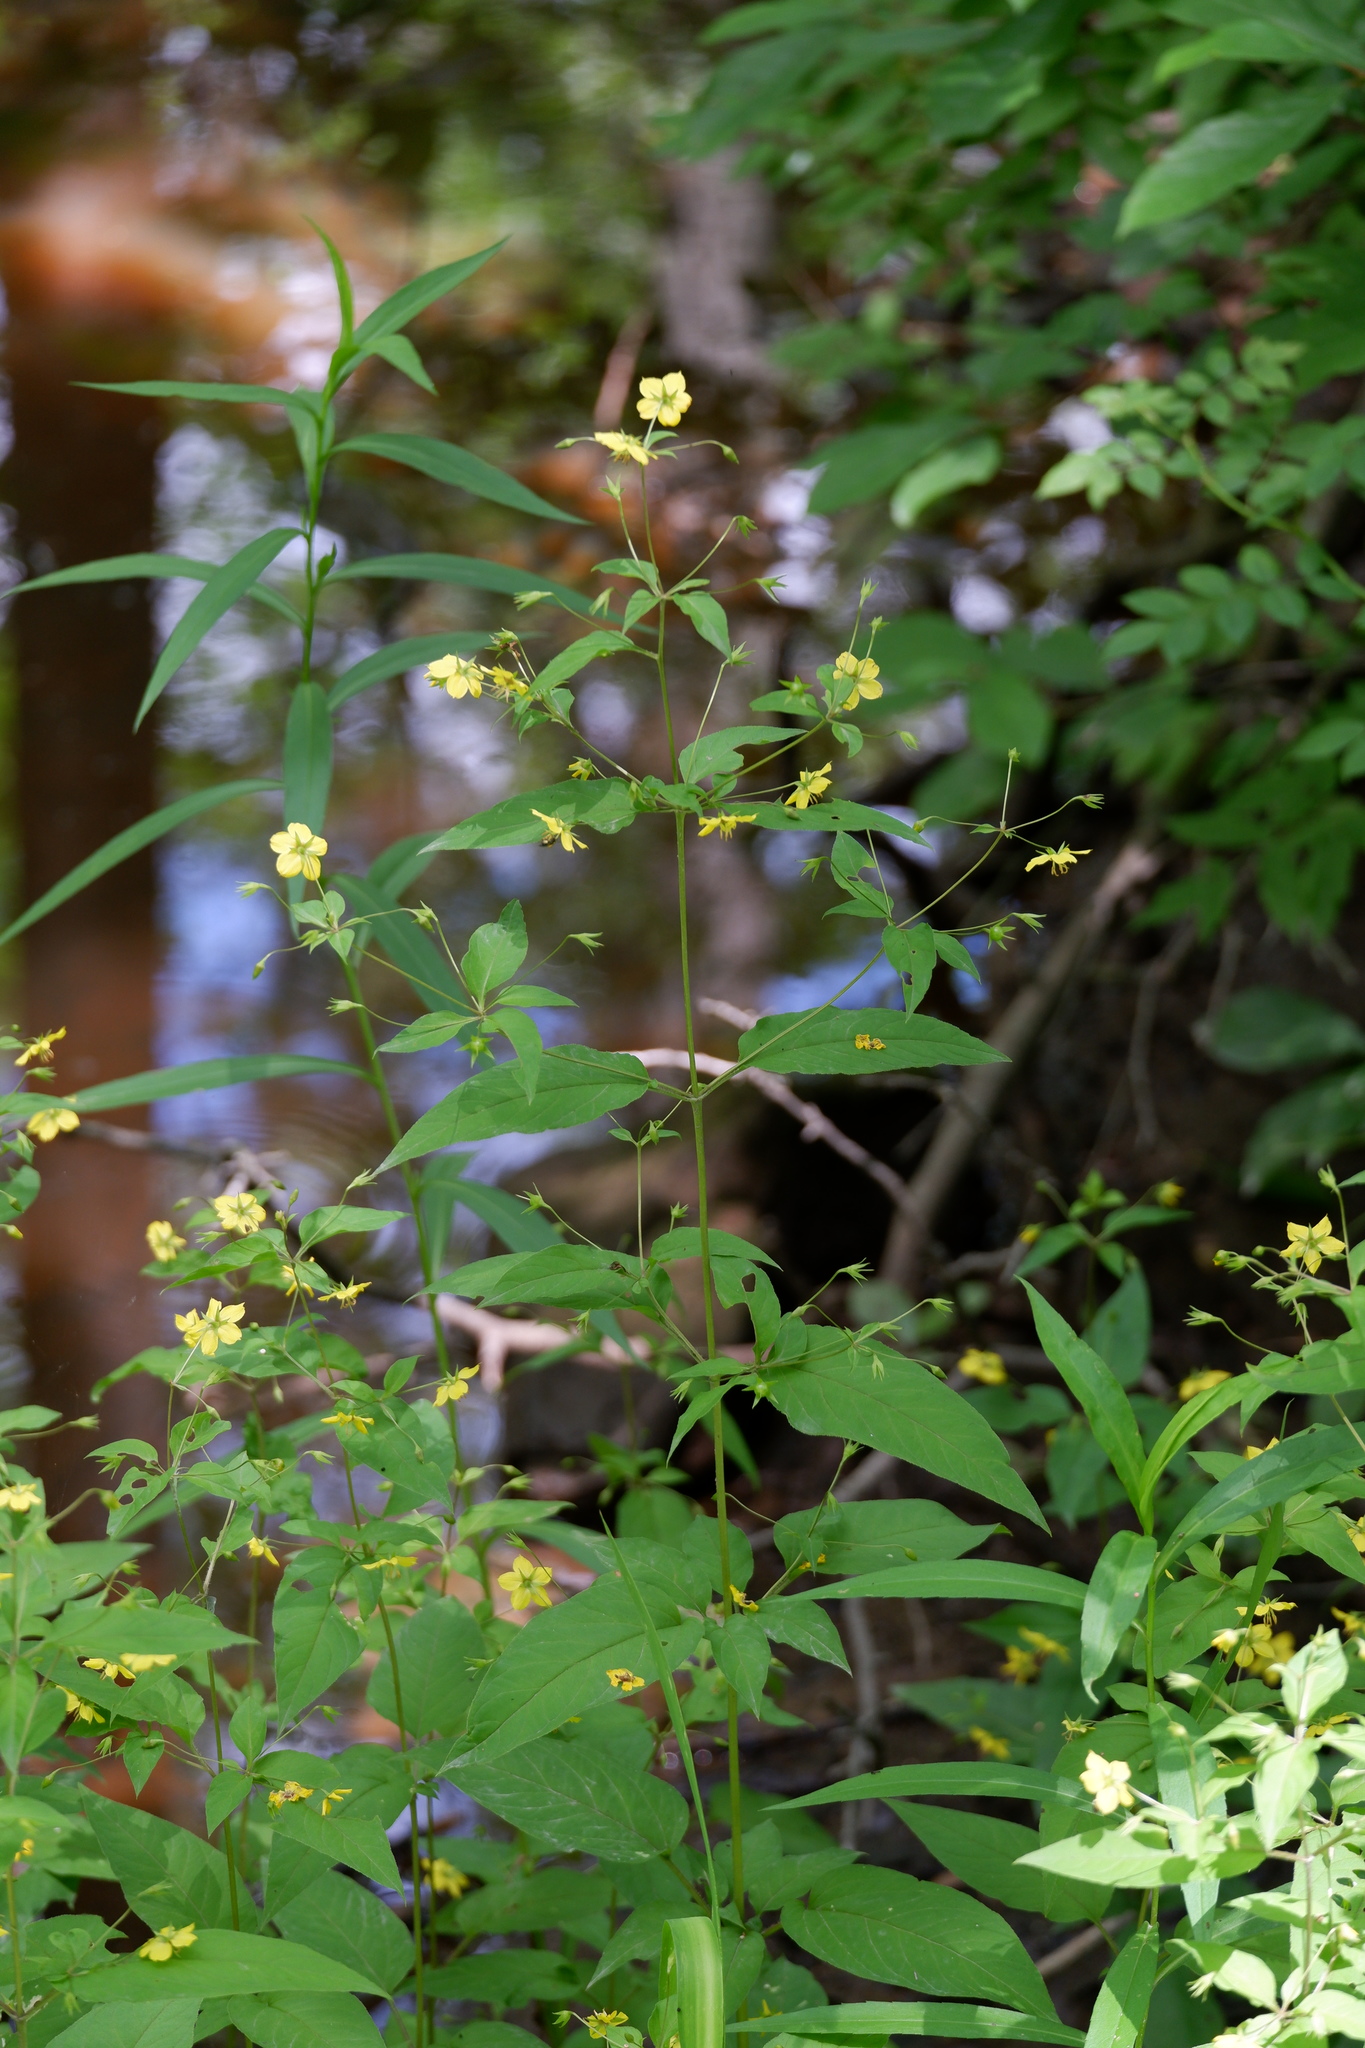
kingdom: Plantae
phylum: Tracheophyta
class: Magnoliopsida
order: Ericales
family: Primulaceae
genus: Lysimachia
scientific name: Lysimachia ciliata
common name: Fringed loosestrife
